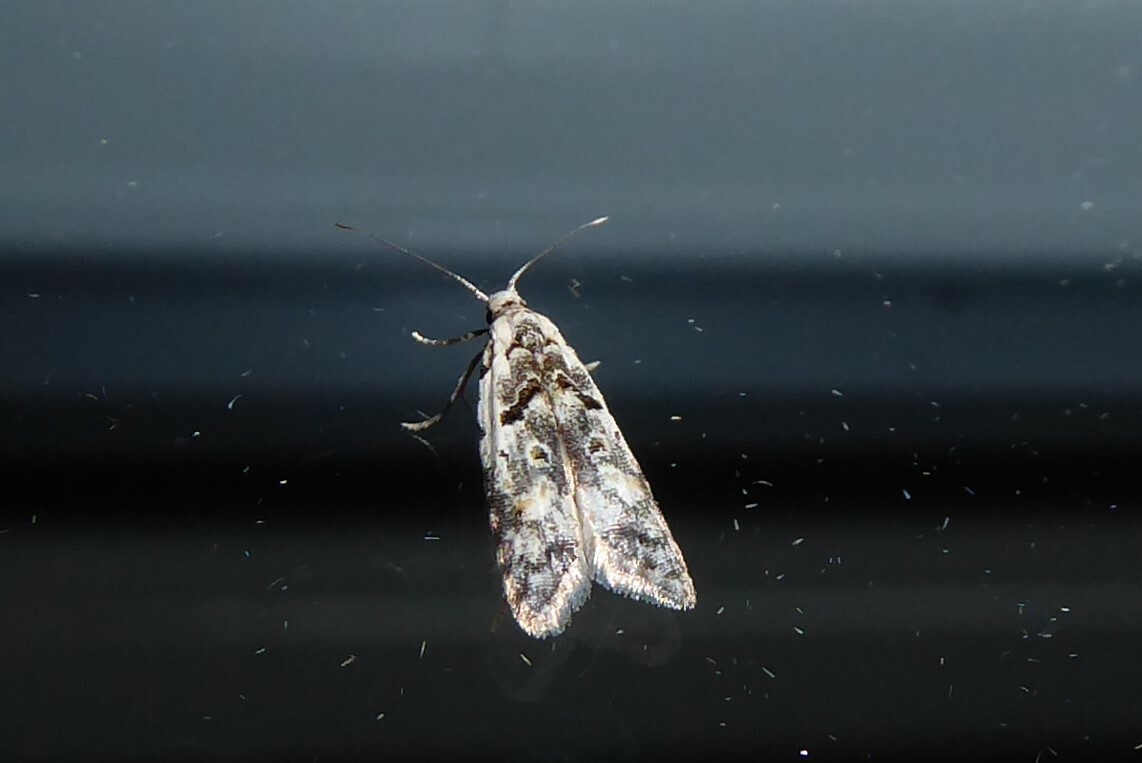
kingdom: Animalia
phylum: Arthropoda
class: Insecta
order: Lepidoptera
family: Carposinidae
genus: Carposina
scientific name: Carposina
